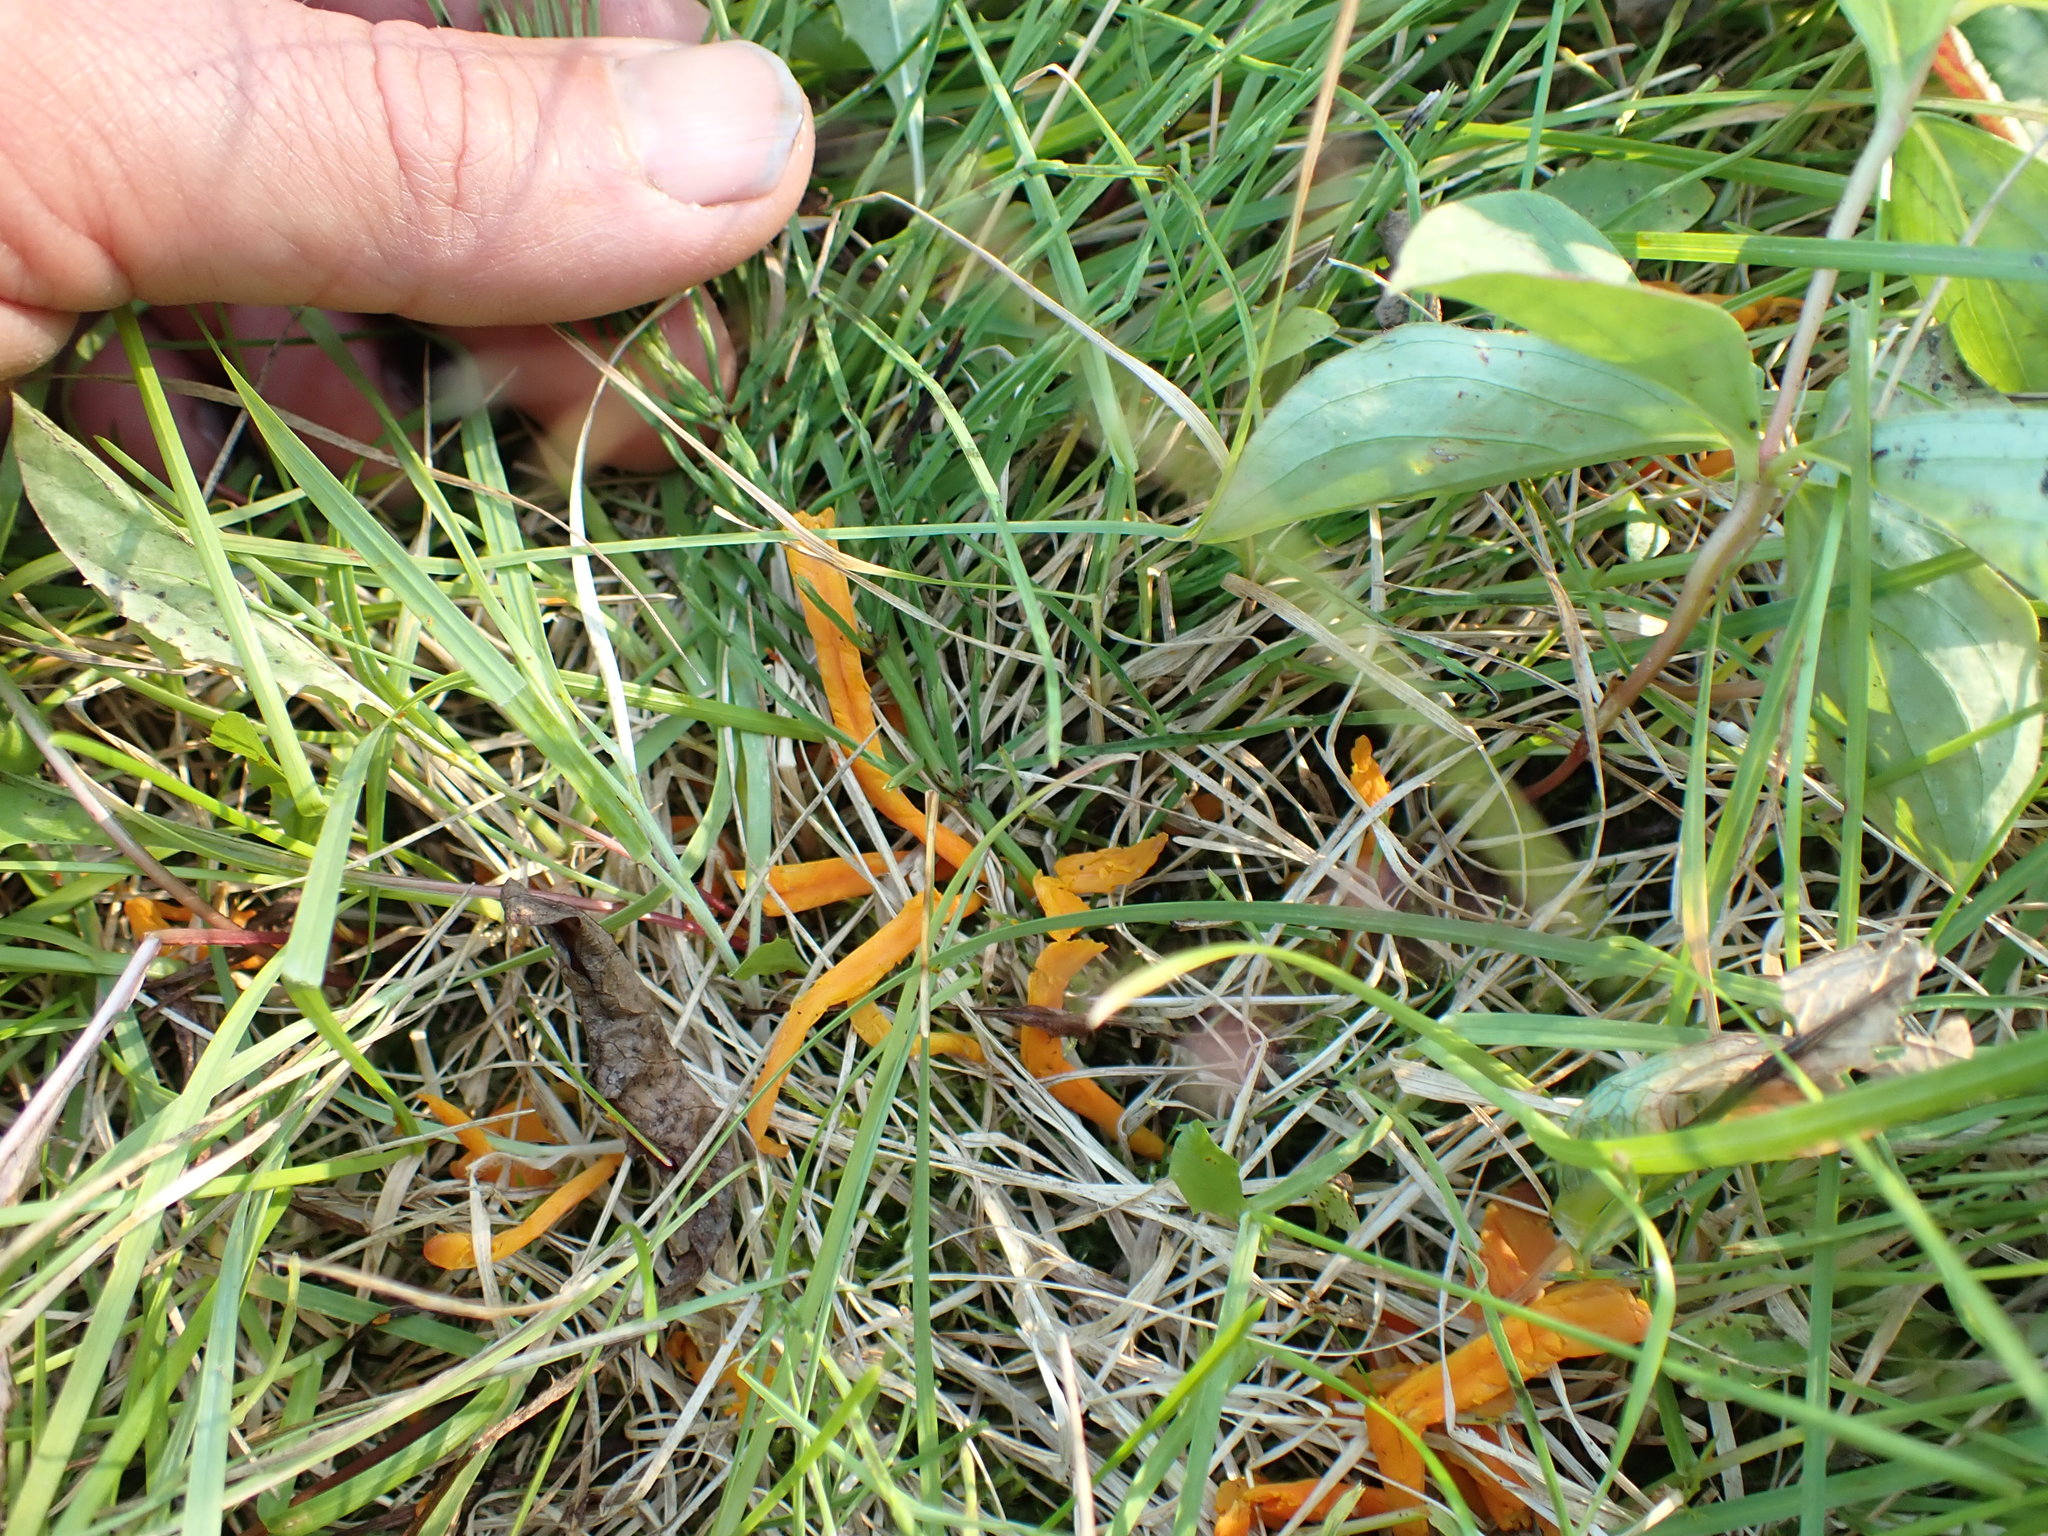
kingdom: Fungi
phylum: Basidiomycota
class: Agaricomycetes
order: Agaricales
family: Clavariaceae
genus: Clavulinopsis
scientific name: Clavulinopsis laeticolor
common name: Handsome club
